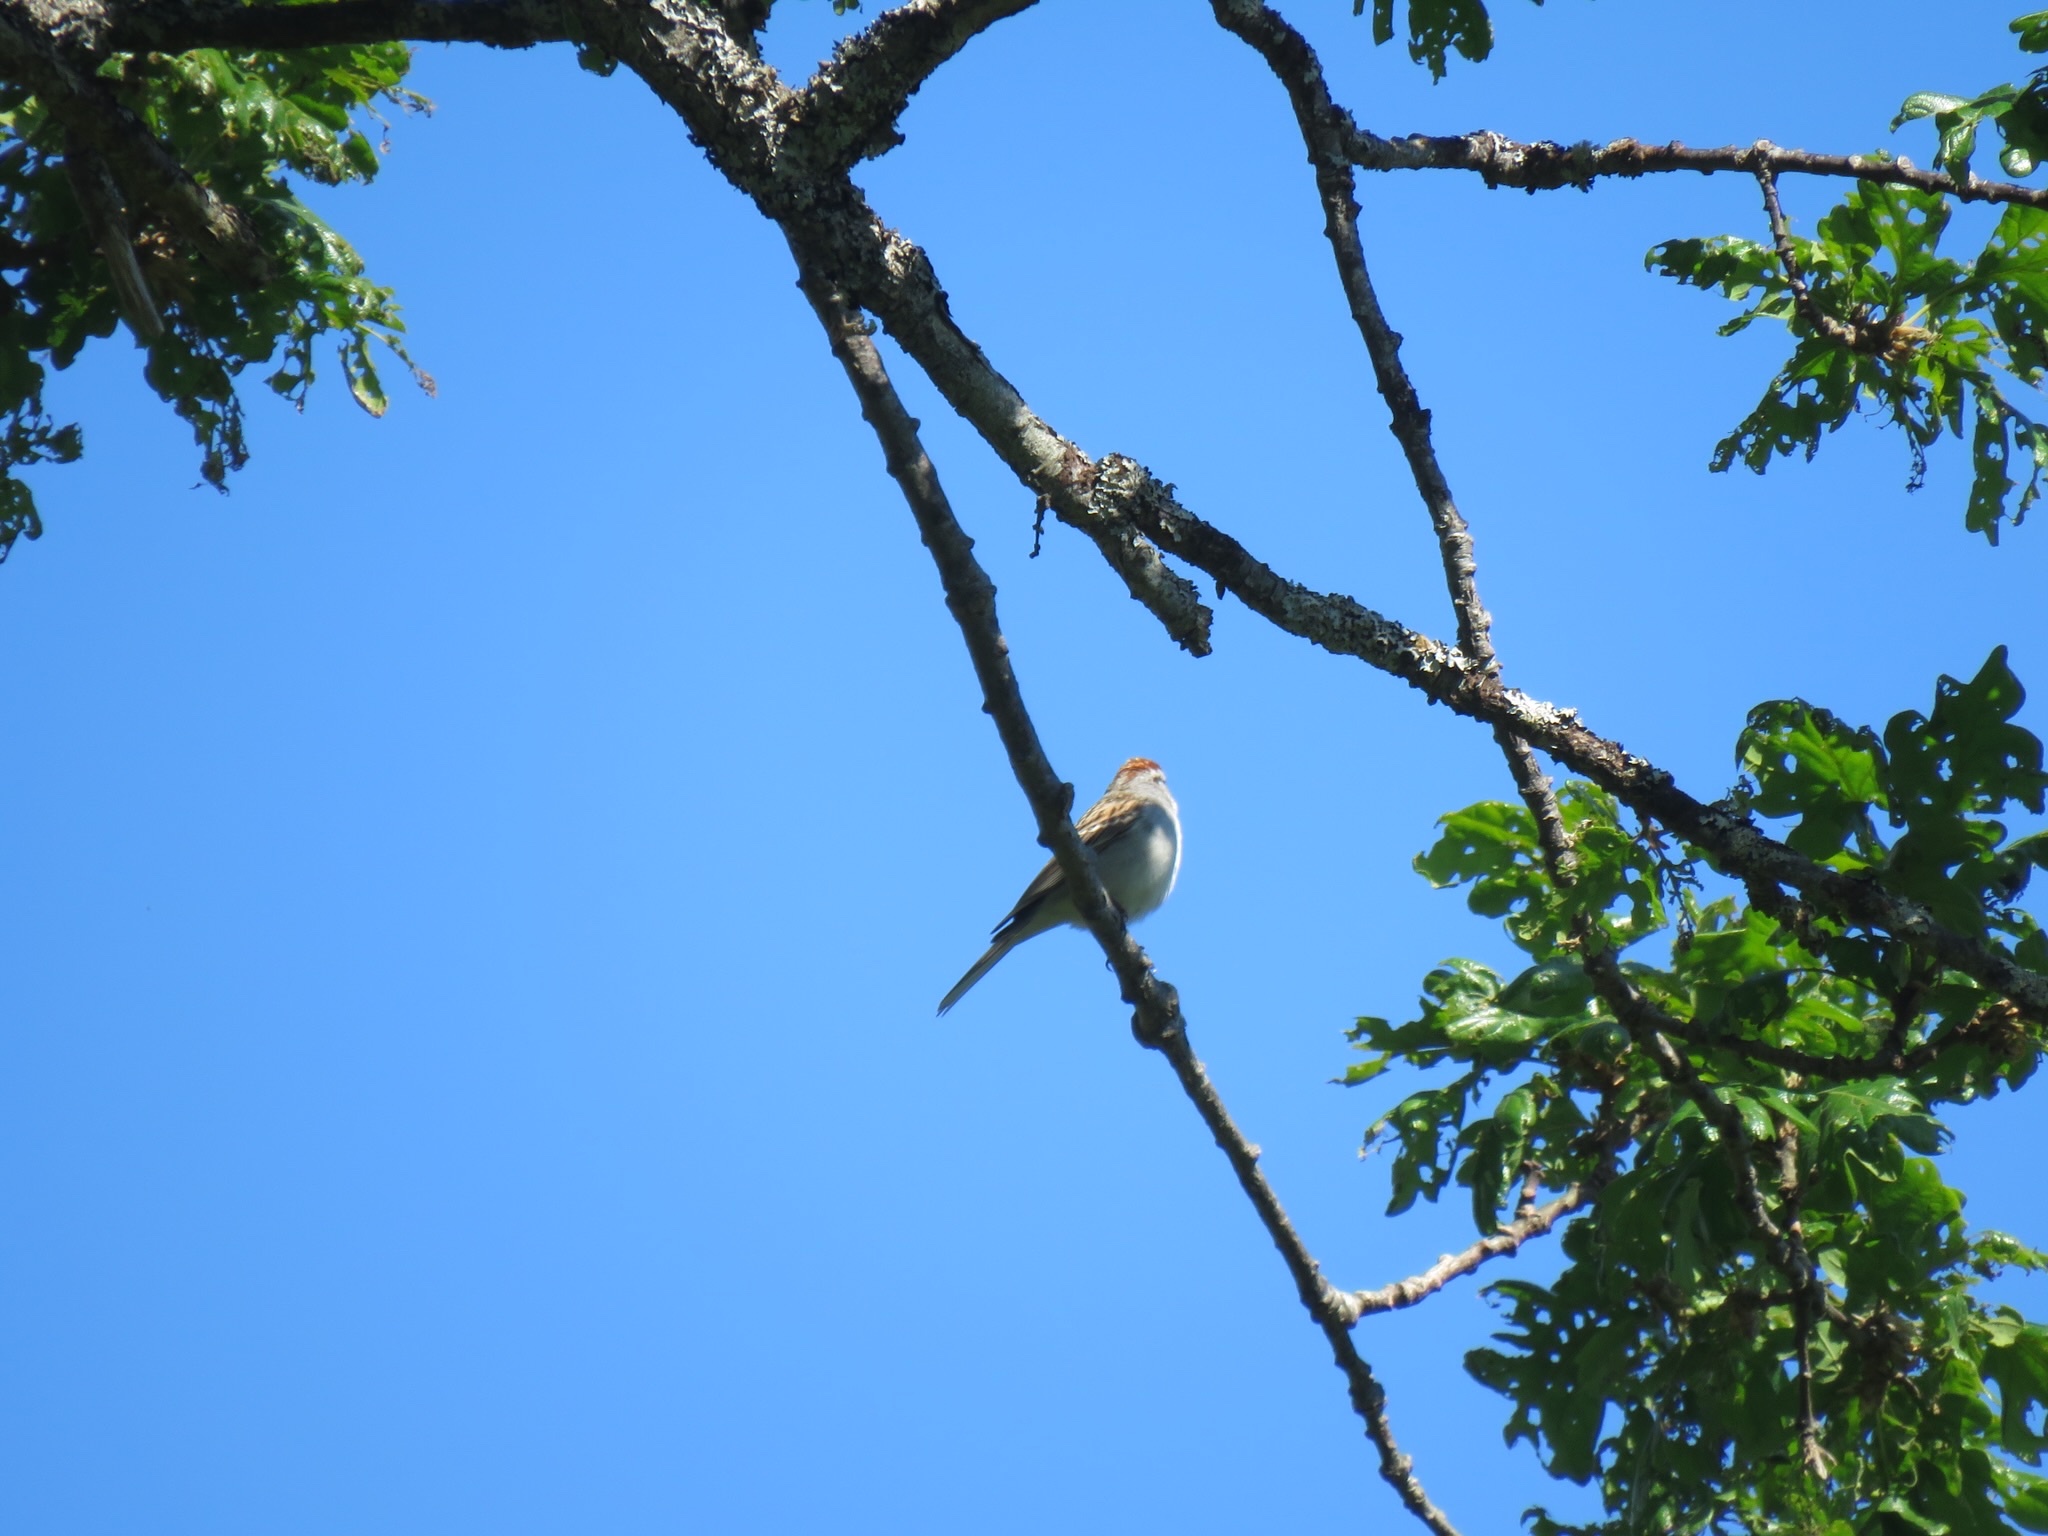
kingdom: Animalia
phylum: Chordata
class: Aves
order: Passeriformes
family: Passerellidae
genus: Spizella
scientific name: Spizella passerina
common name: Chipping sparrow
